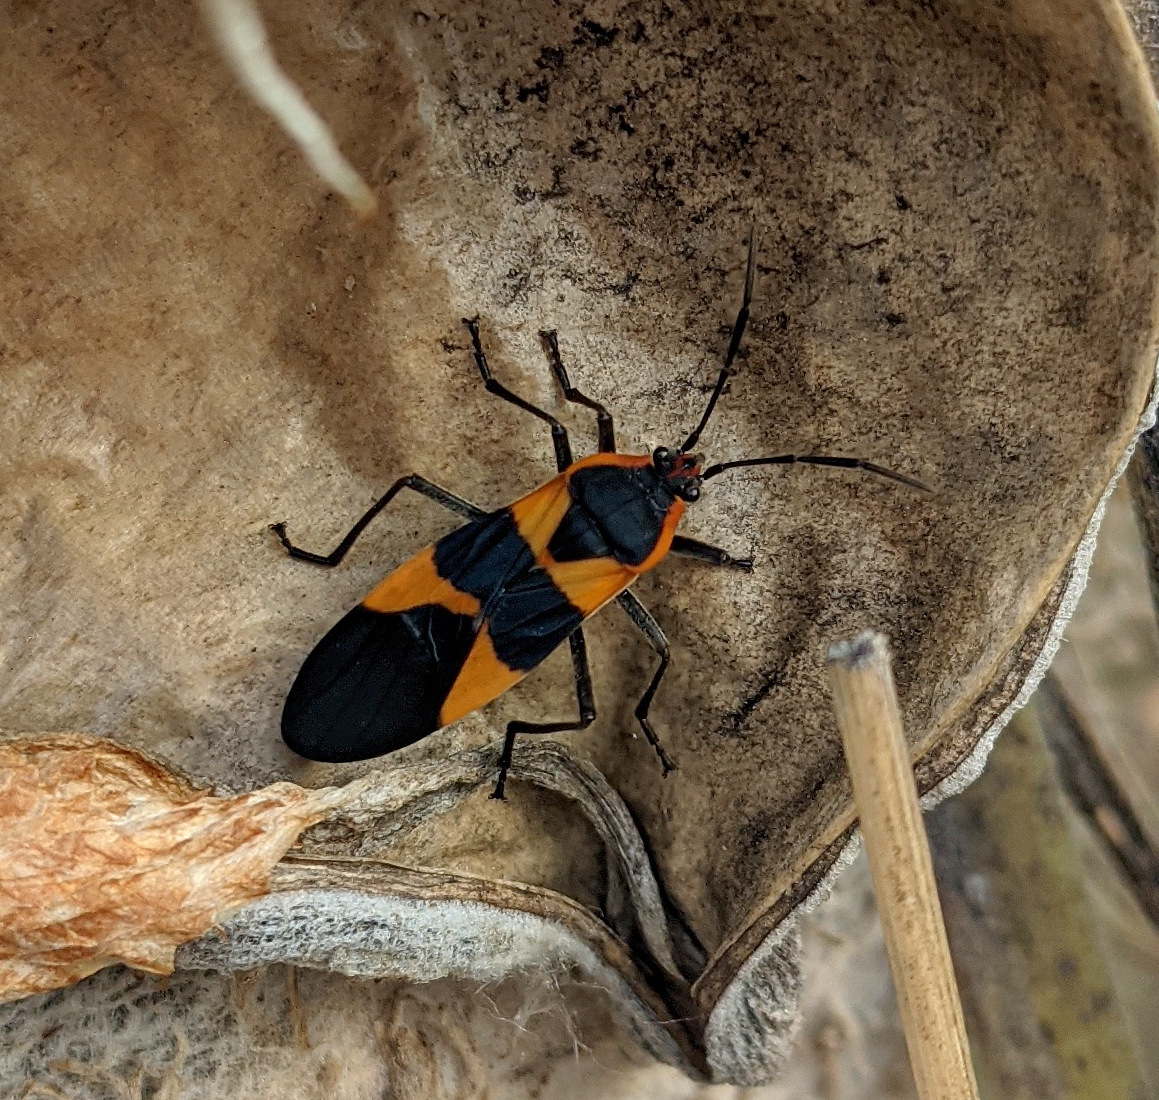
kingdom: Animalia
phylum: Arthropoda
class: Insecta
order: Hemiptera
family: Lygaeidae
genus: Oncopeltus
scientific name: Oncopeltus fasciatus
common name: Large milkweed bug
